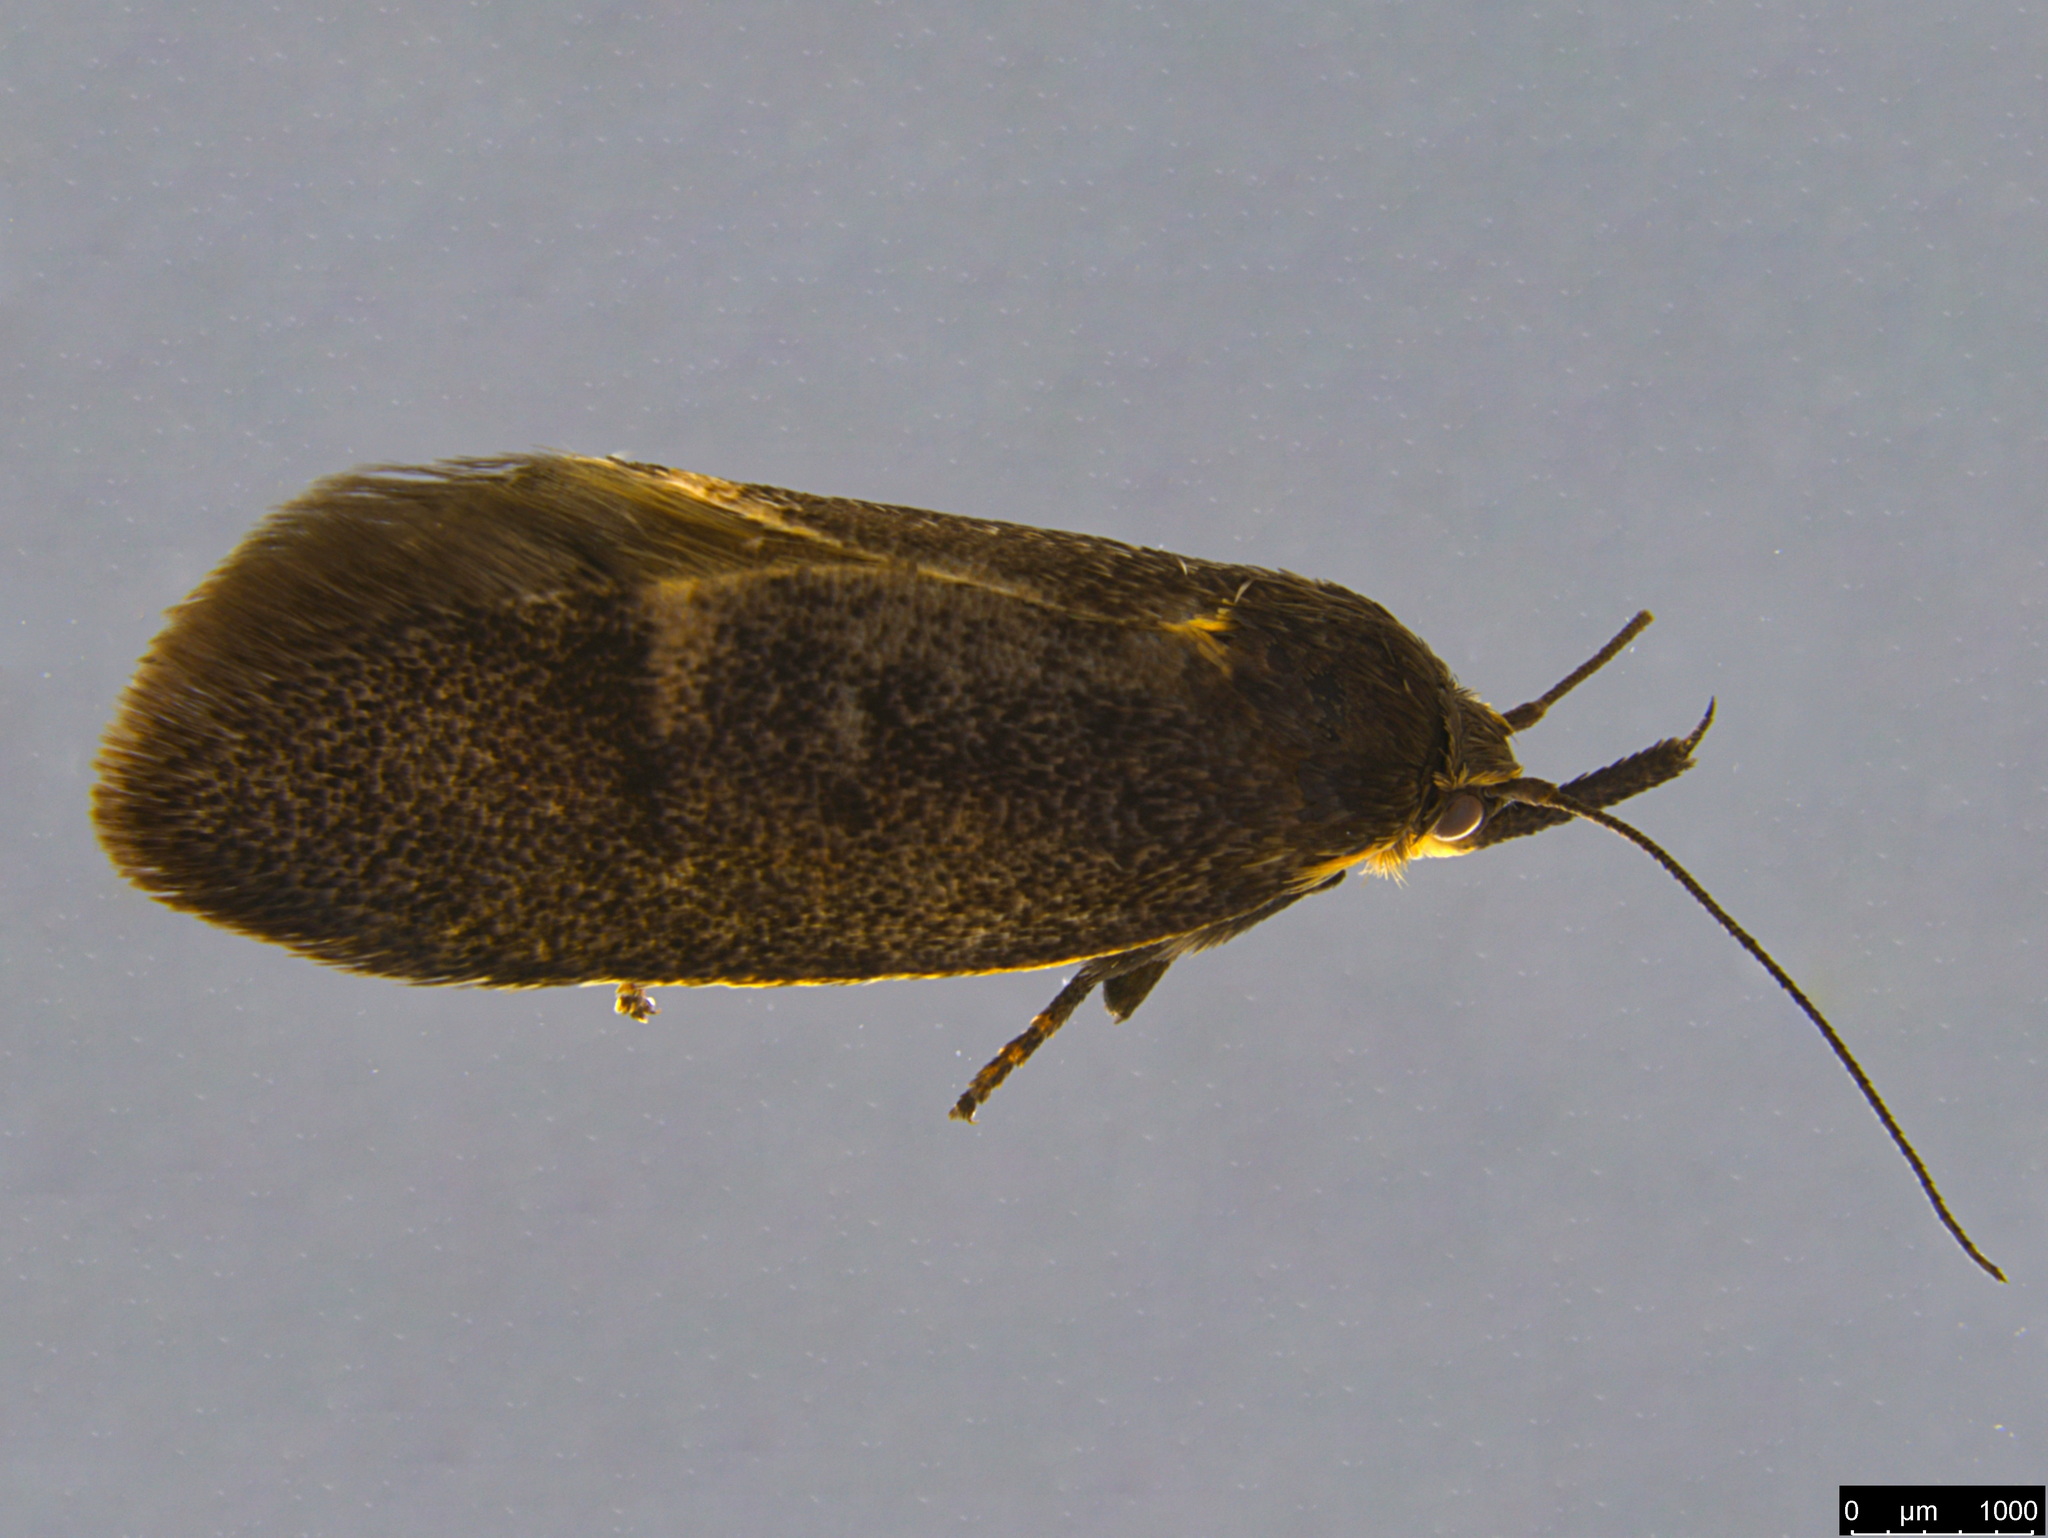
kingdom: Animalia
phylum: Arthropoda
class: Insecta
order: Lepidoptera
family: Oecophoridae
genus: Leistomorpha
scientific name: Leistomorpha brontoscopa
